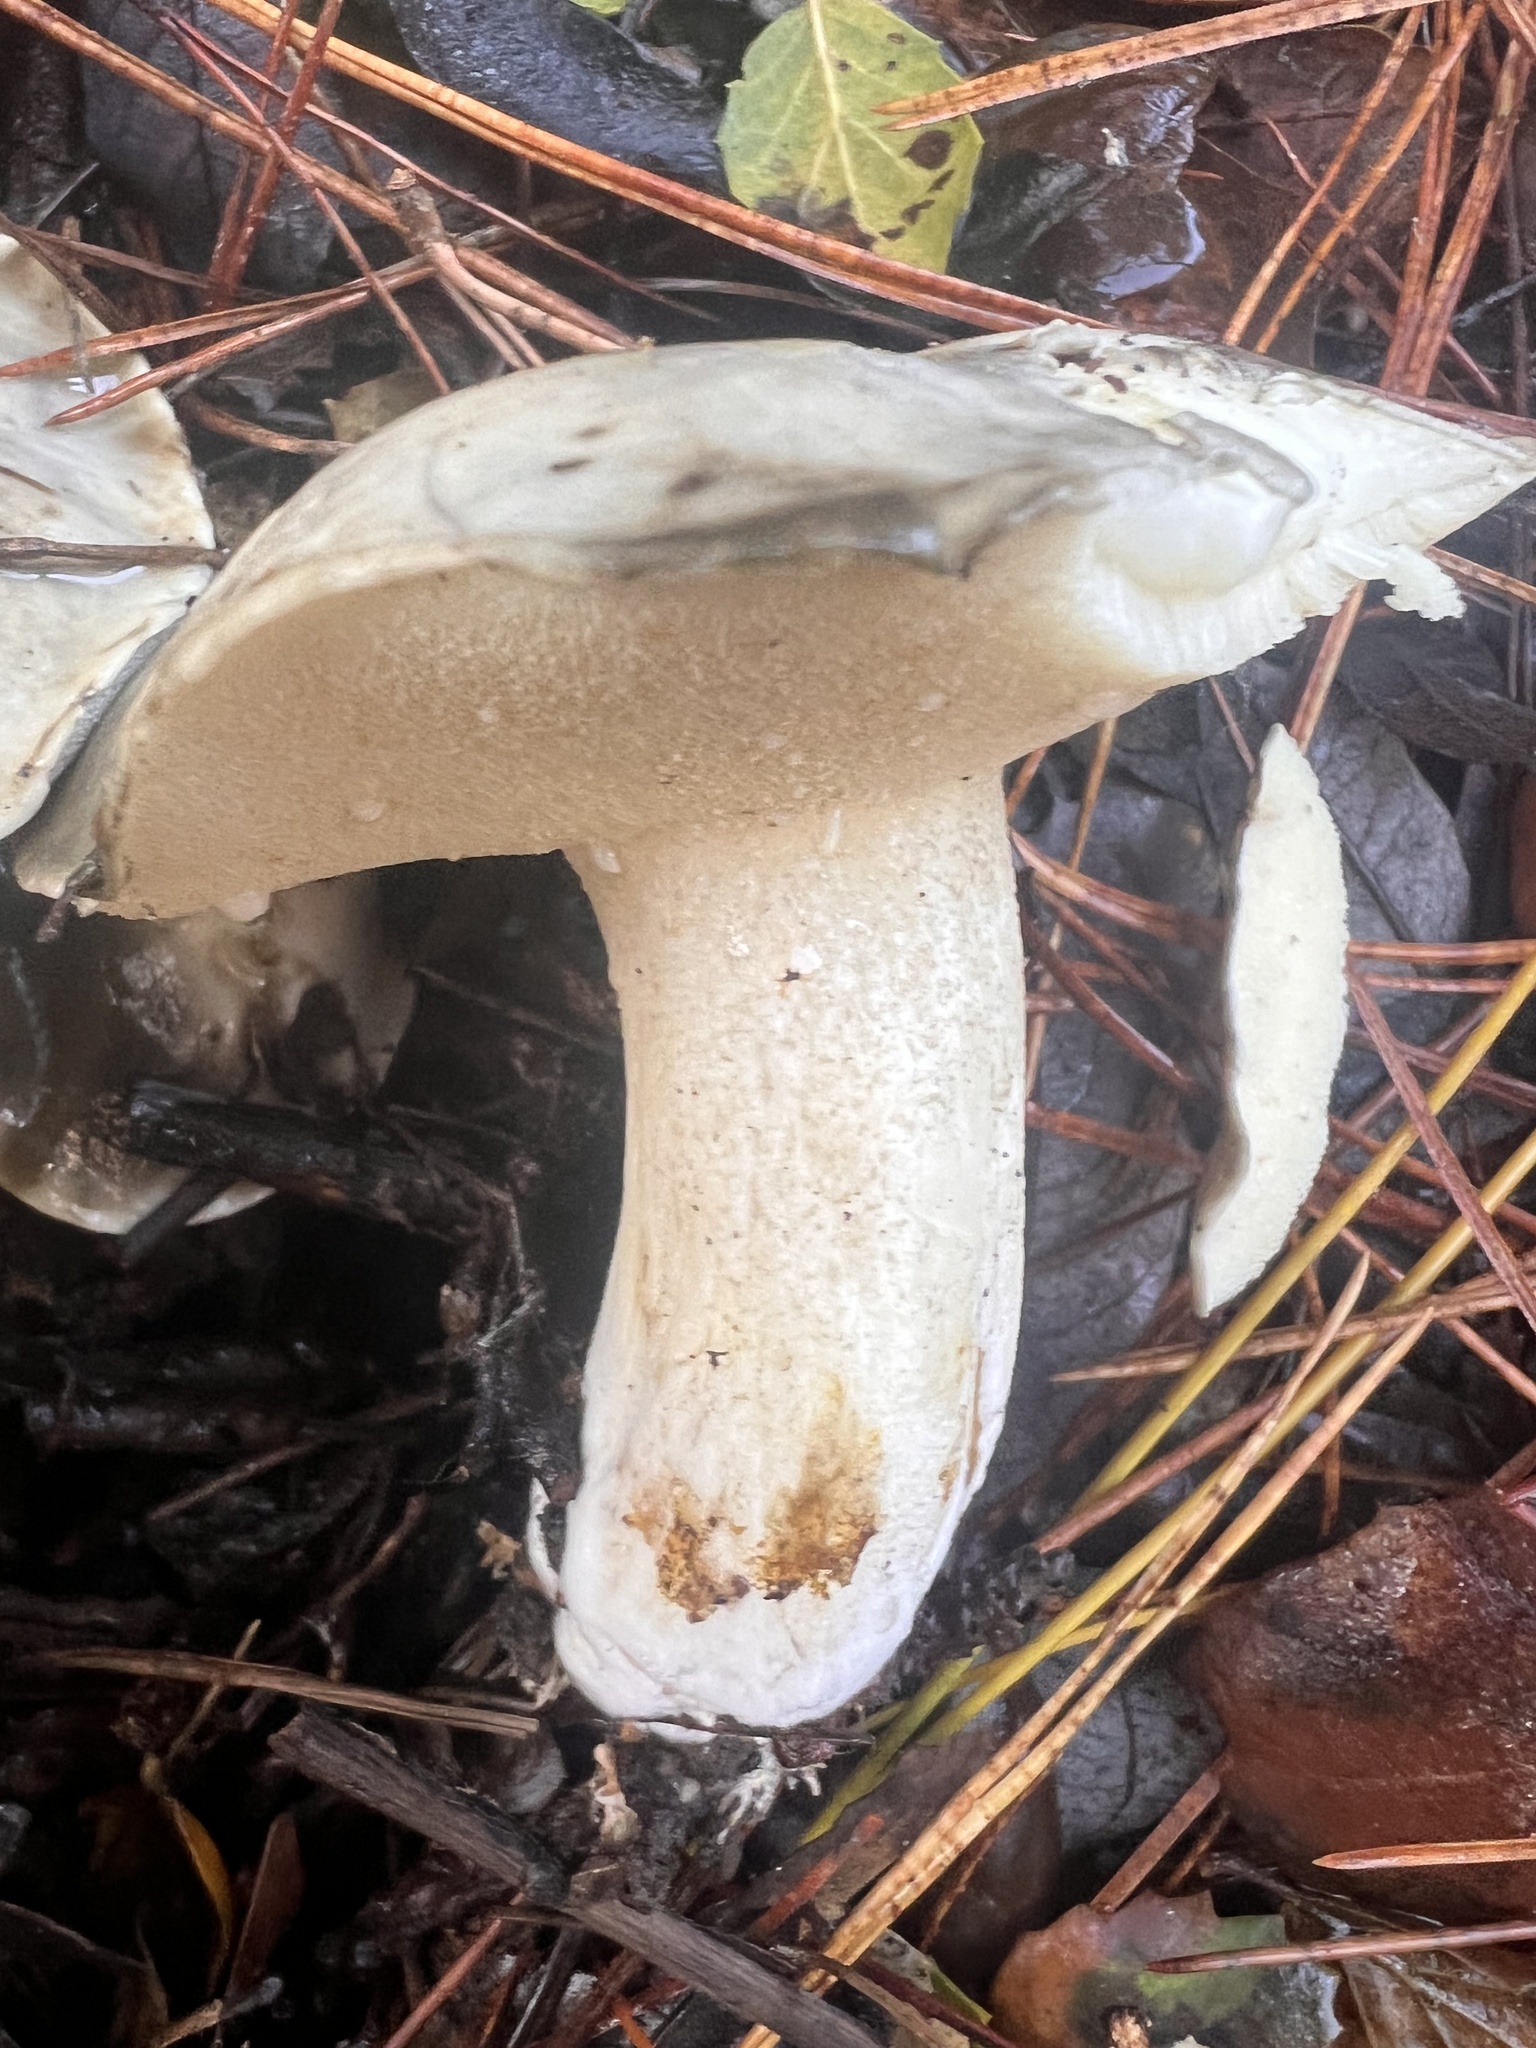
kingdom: Fungi
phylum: Basidiomycota
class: Agaricomycetes
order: Boletales
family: Suillaceae
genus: Suillus
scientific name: Suillus pungens
